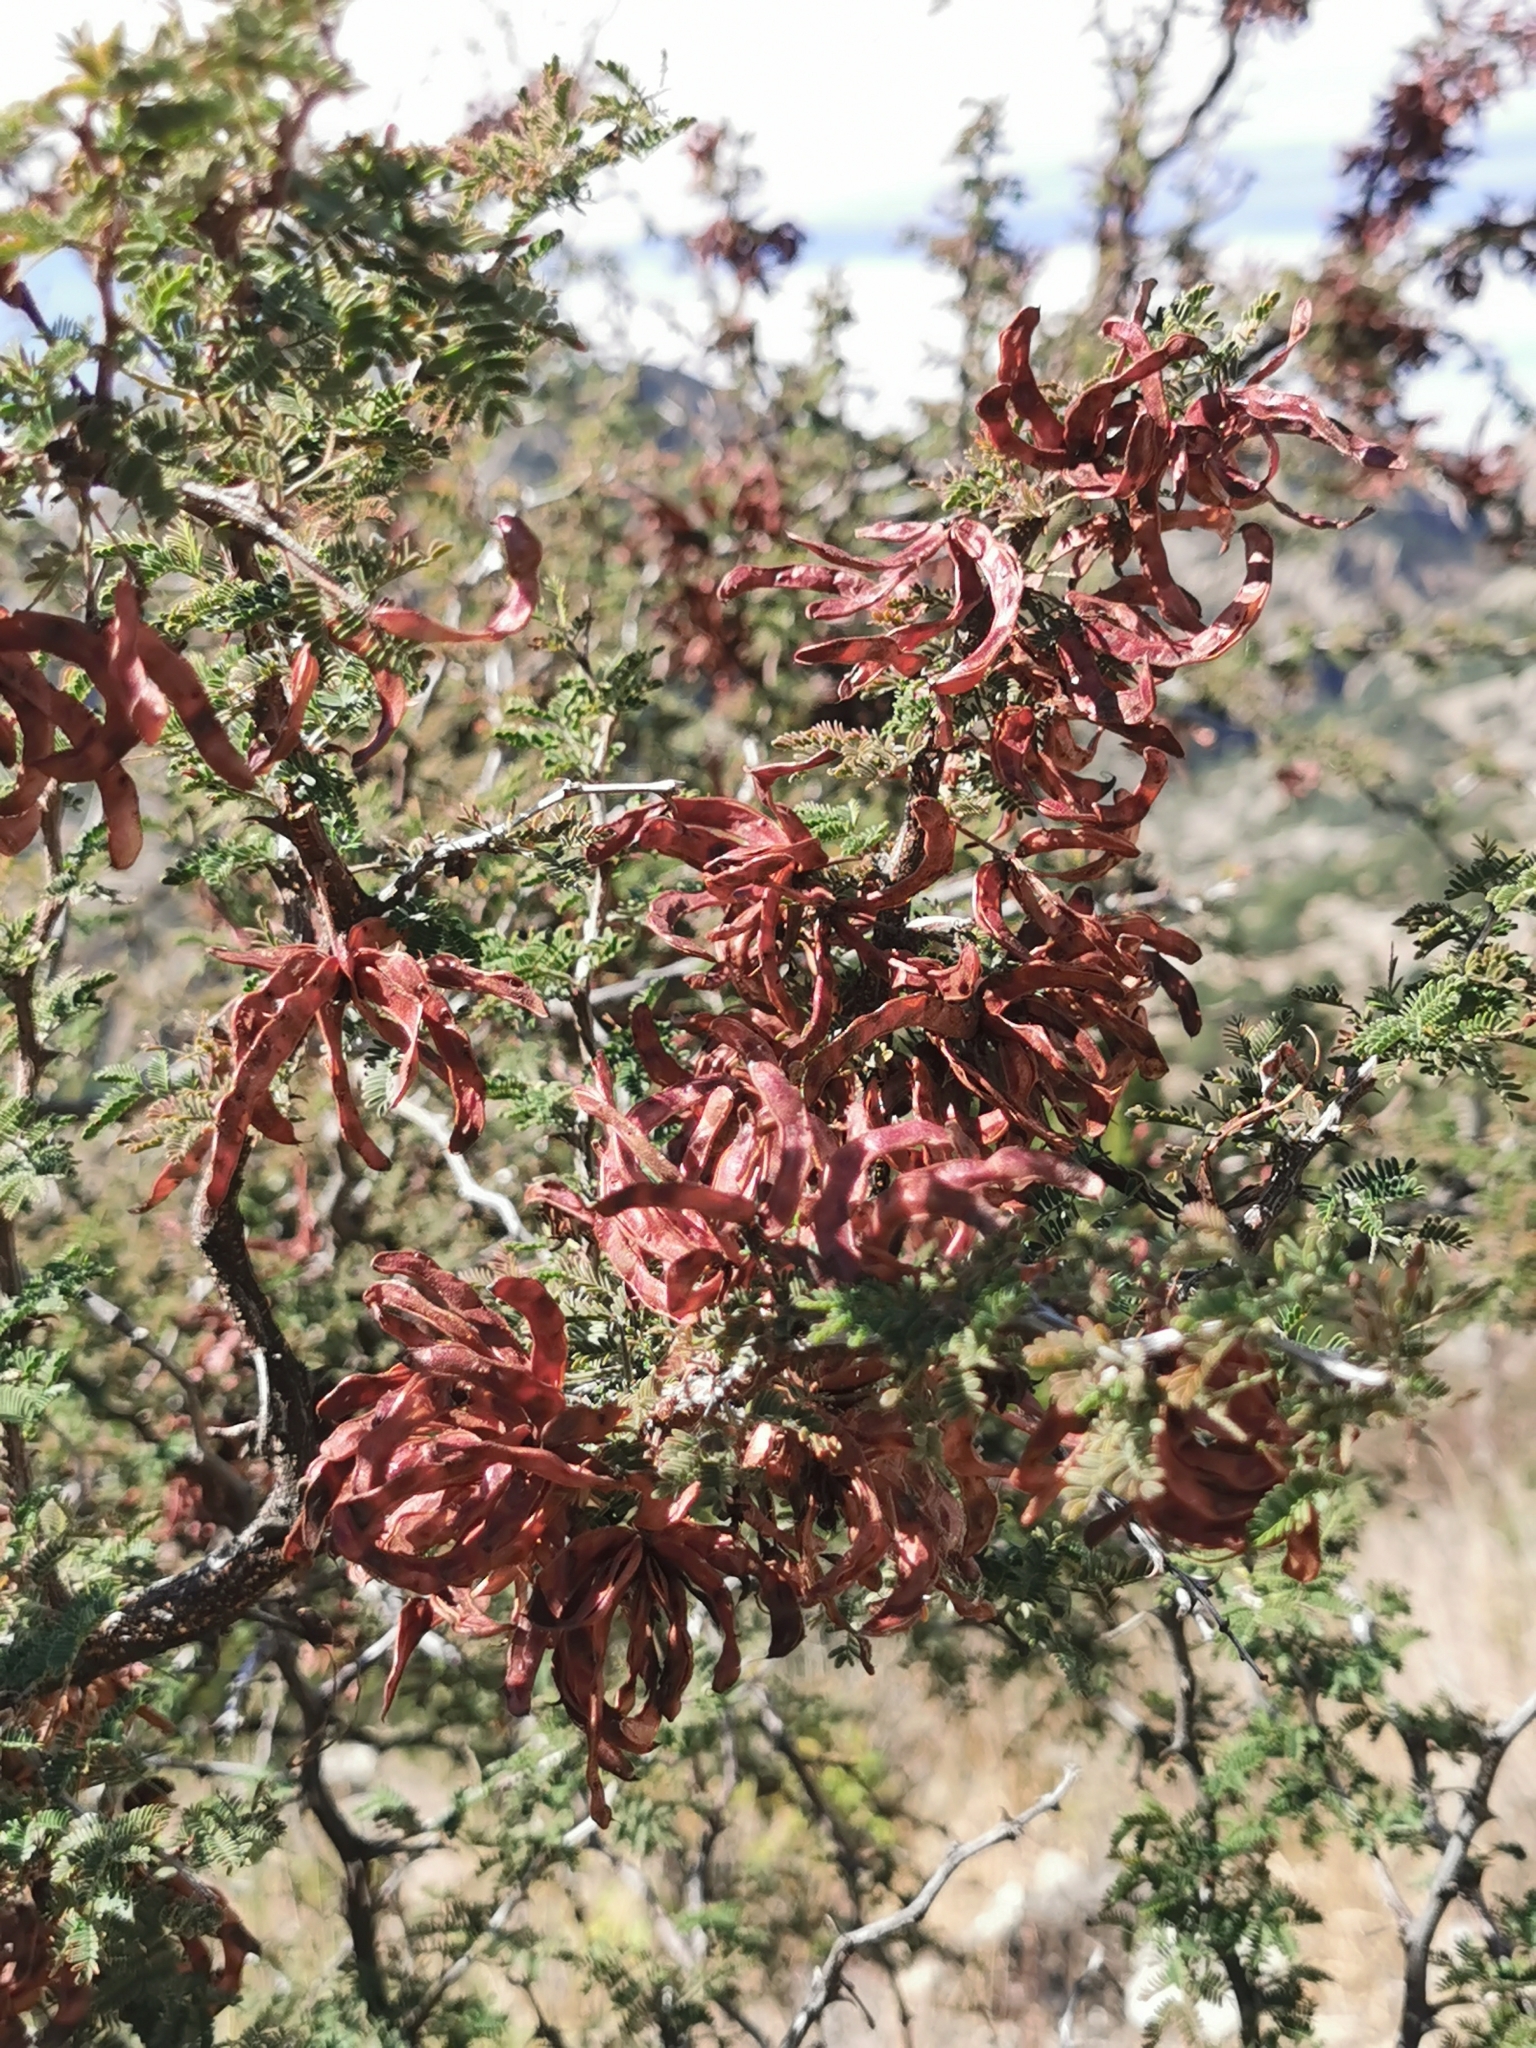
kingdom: Plantae
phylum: Tracheophyta
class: Magnoliopsida
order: Fabales
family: Fabaceae
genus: Mimosa
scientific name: Mimosa aculeaticarpa
